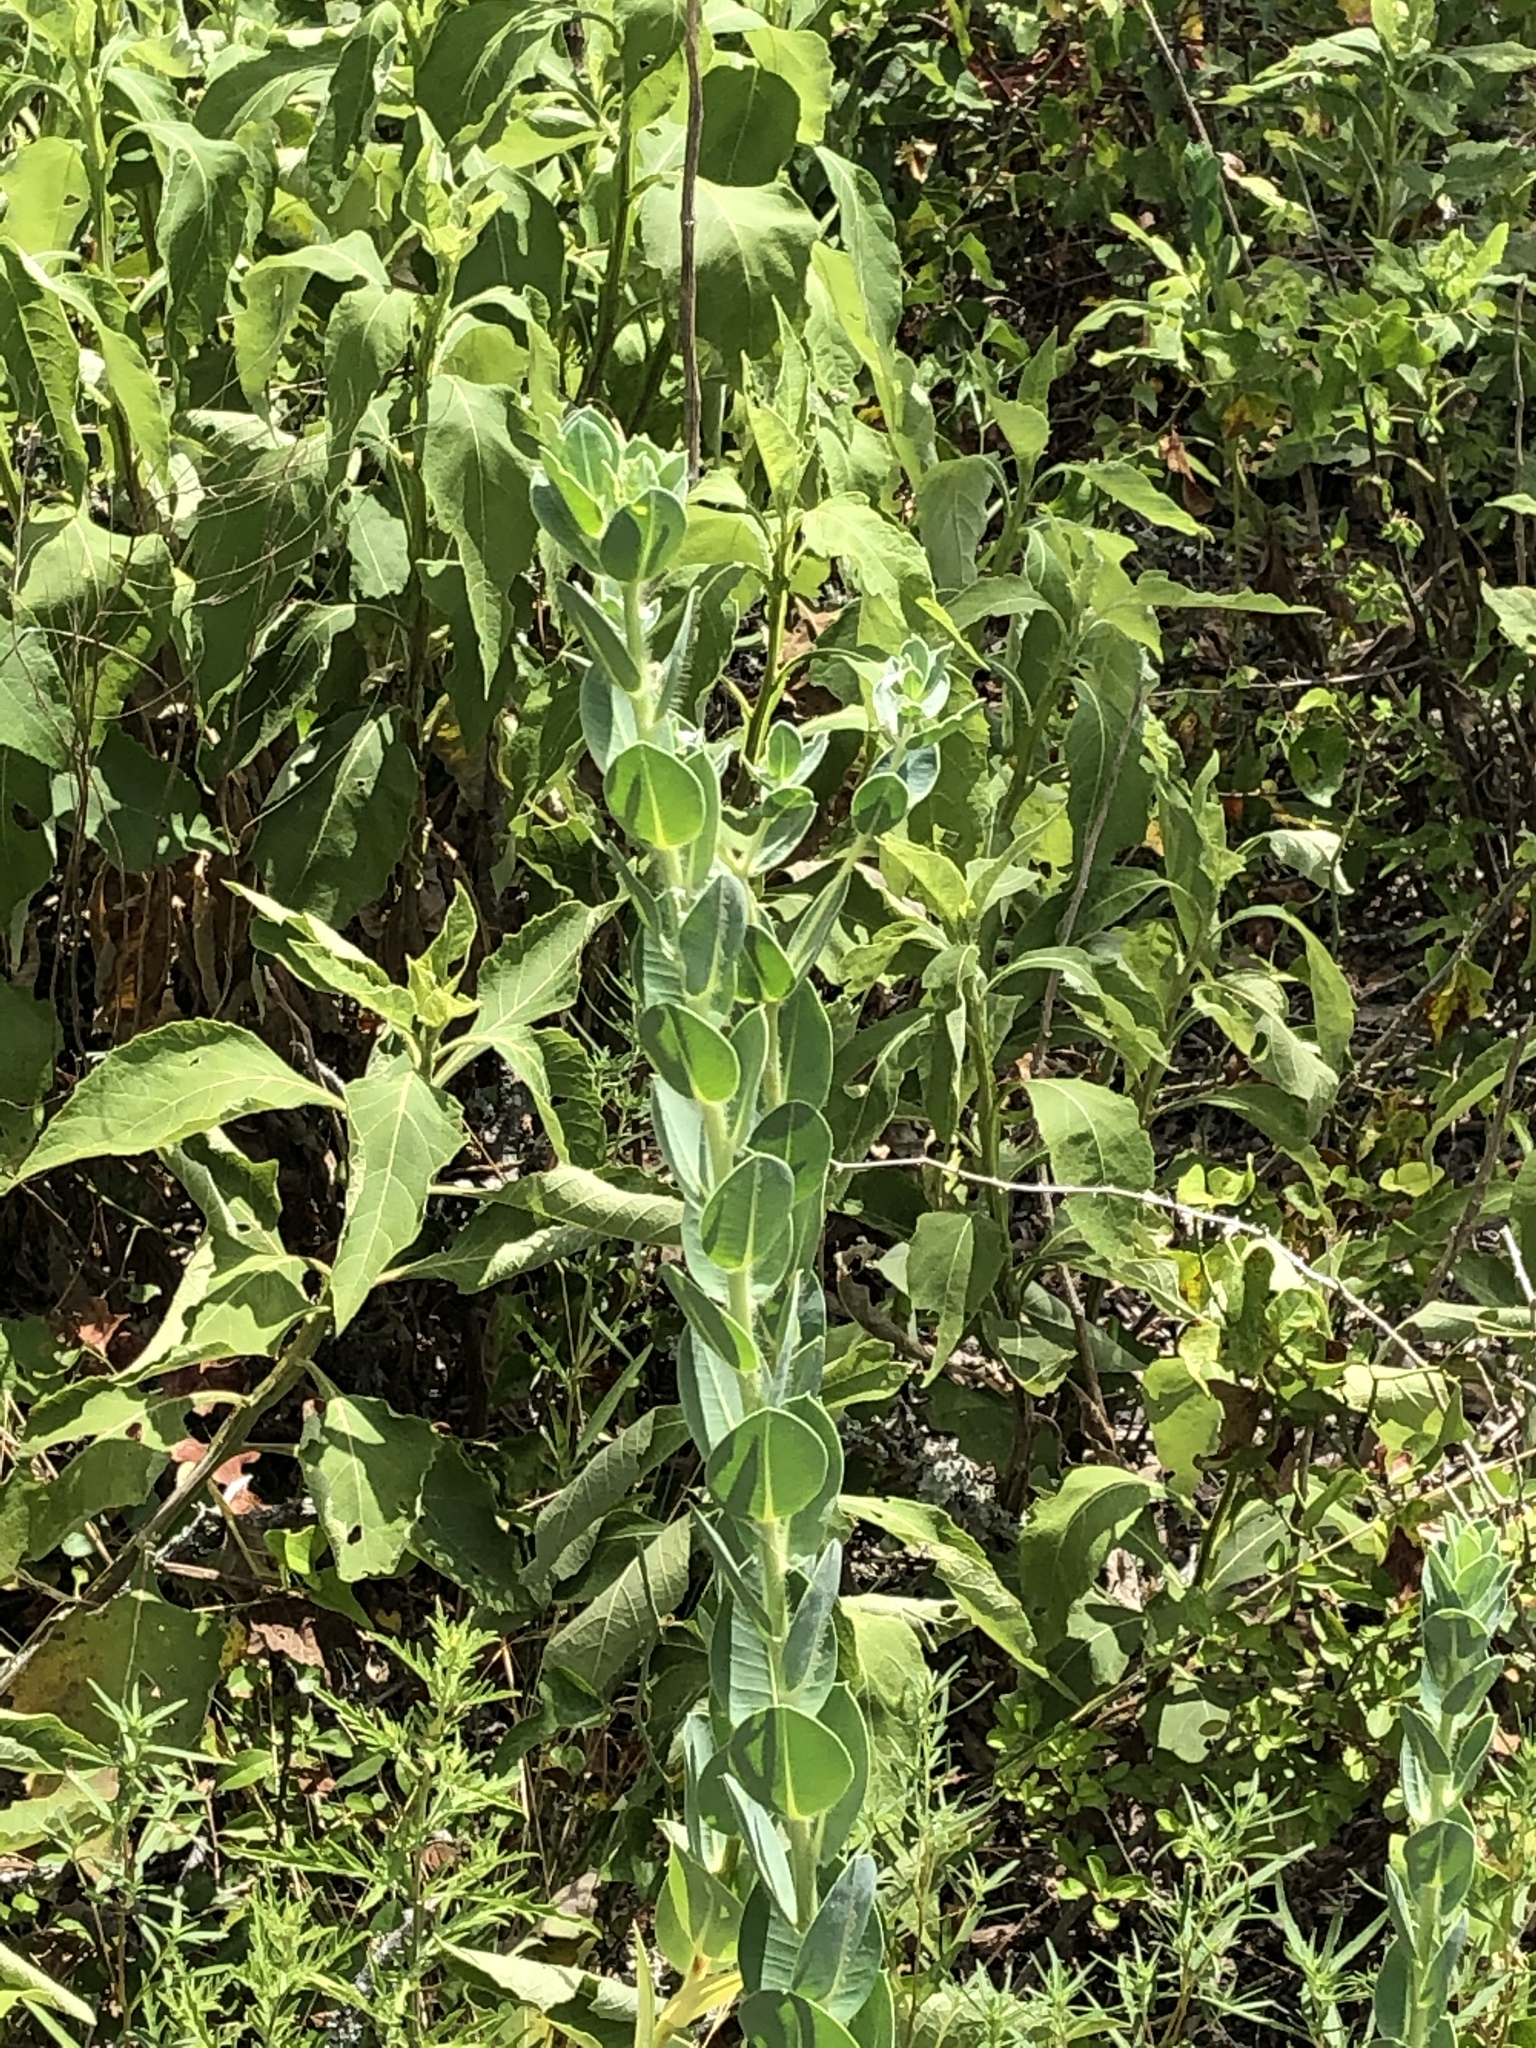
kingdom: Plantae
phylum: Tracheophyta
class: Magnoliopsida
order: Malpighiales
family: Euphorbiaceae
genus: Euphorbia
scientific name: Euphorbia marginata
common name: Ghostweed
